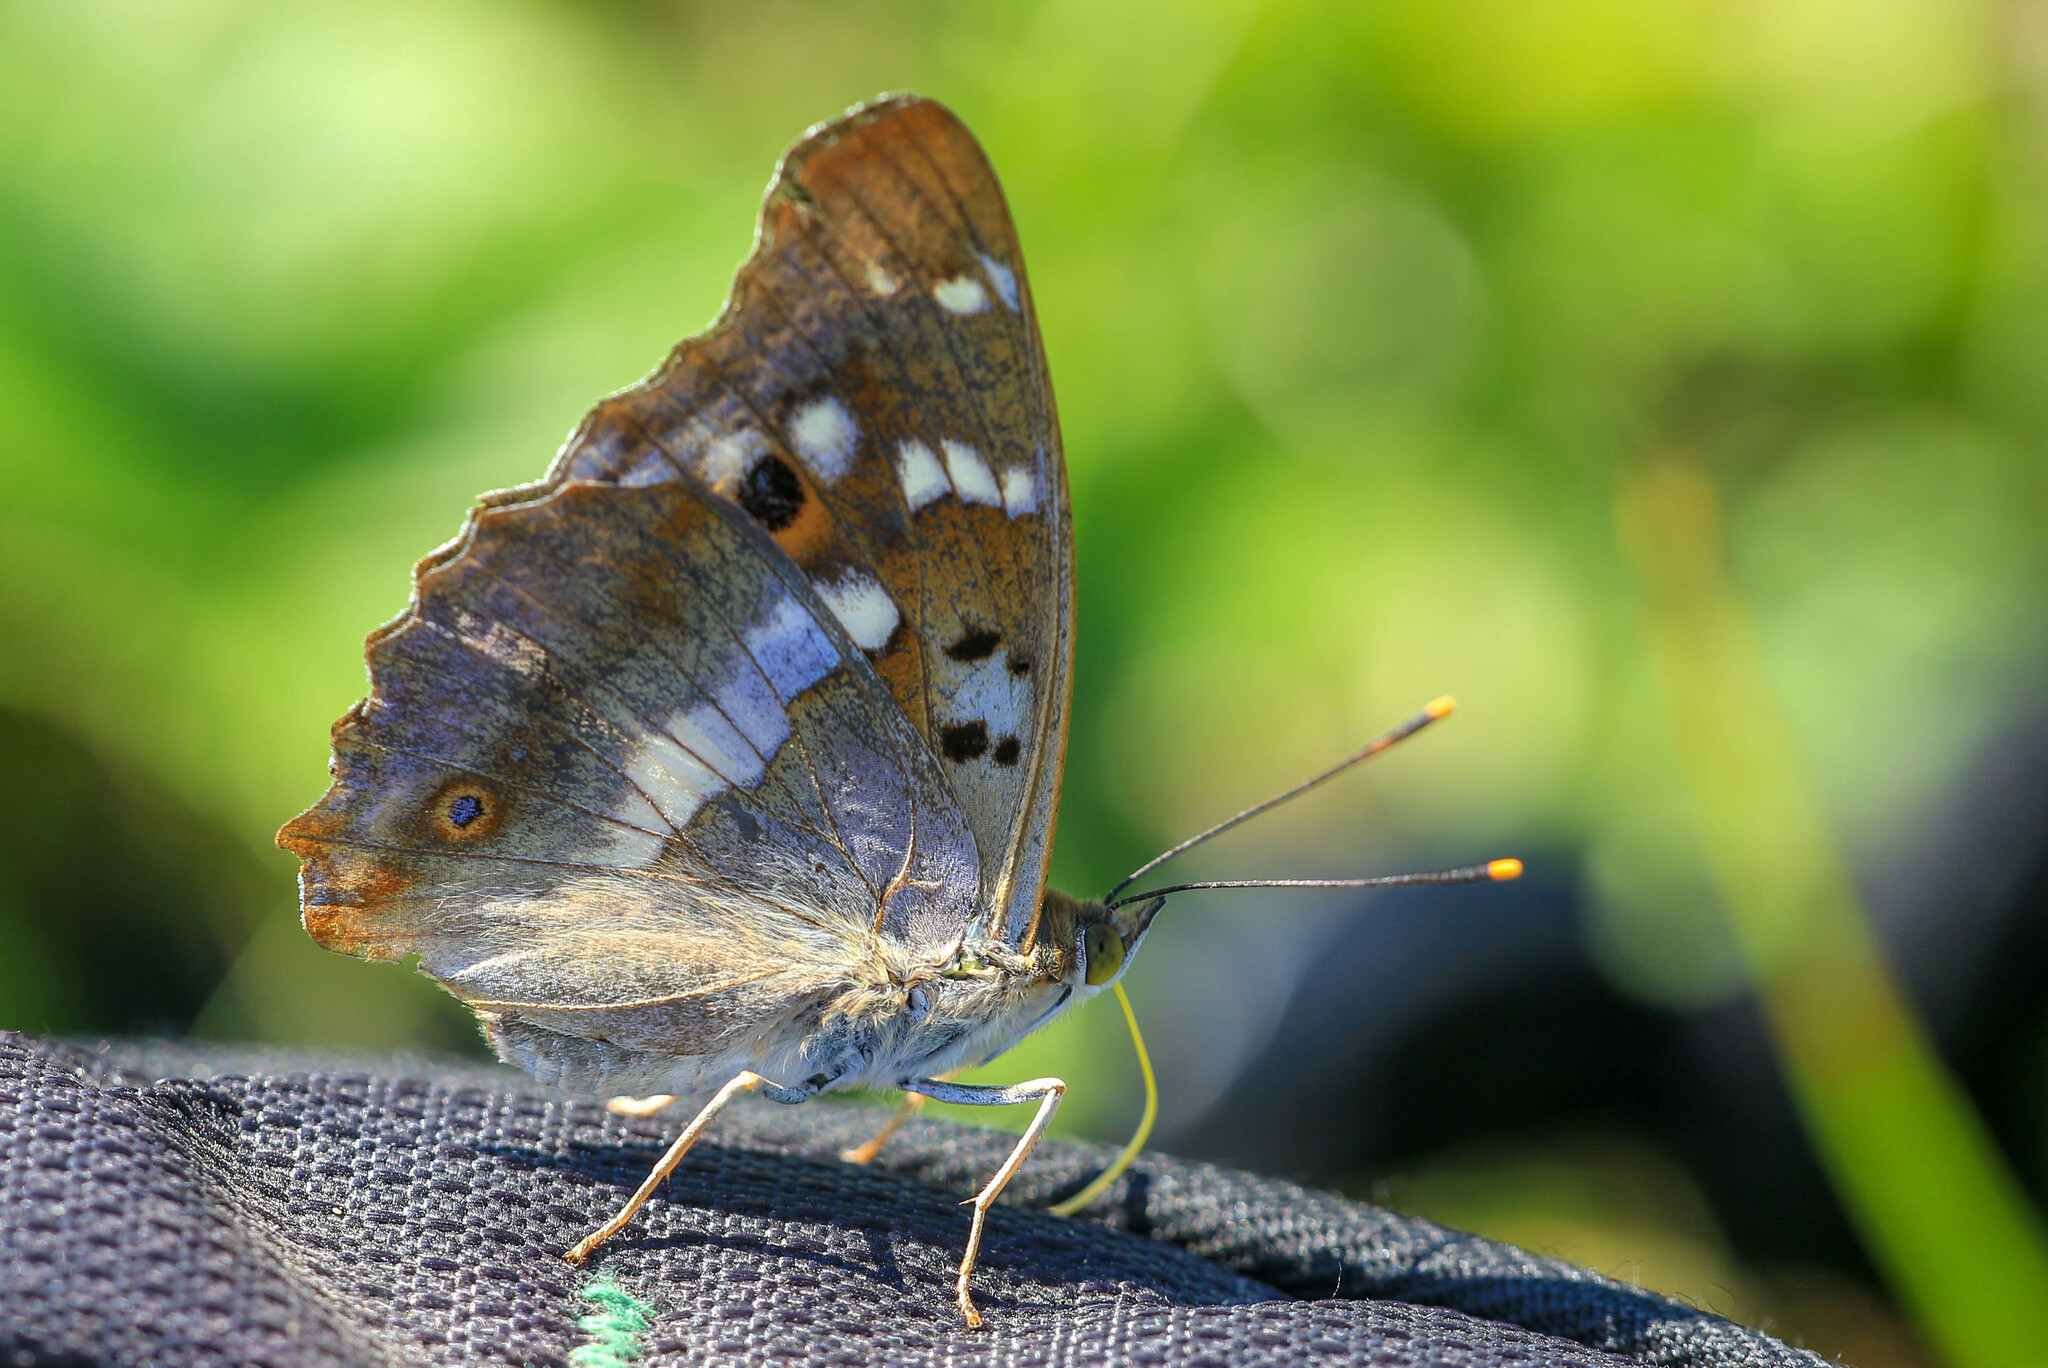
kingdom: Animalia
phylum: Arthropoda
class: Insecta
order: Lepidoptera
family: Nymphalidae
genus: Apatura
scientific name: Apatura ilia
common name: Lesser purple emperor
